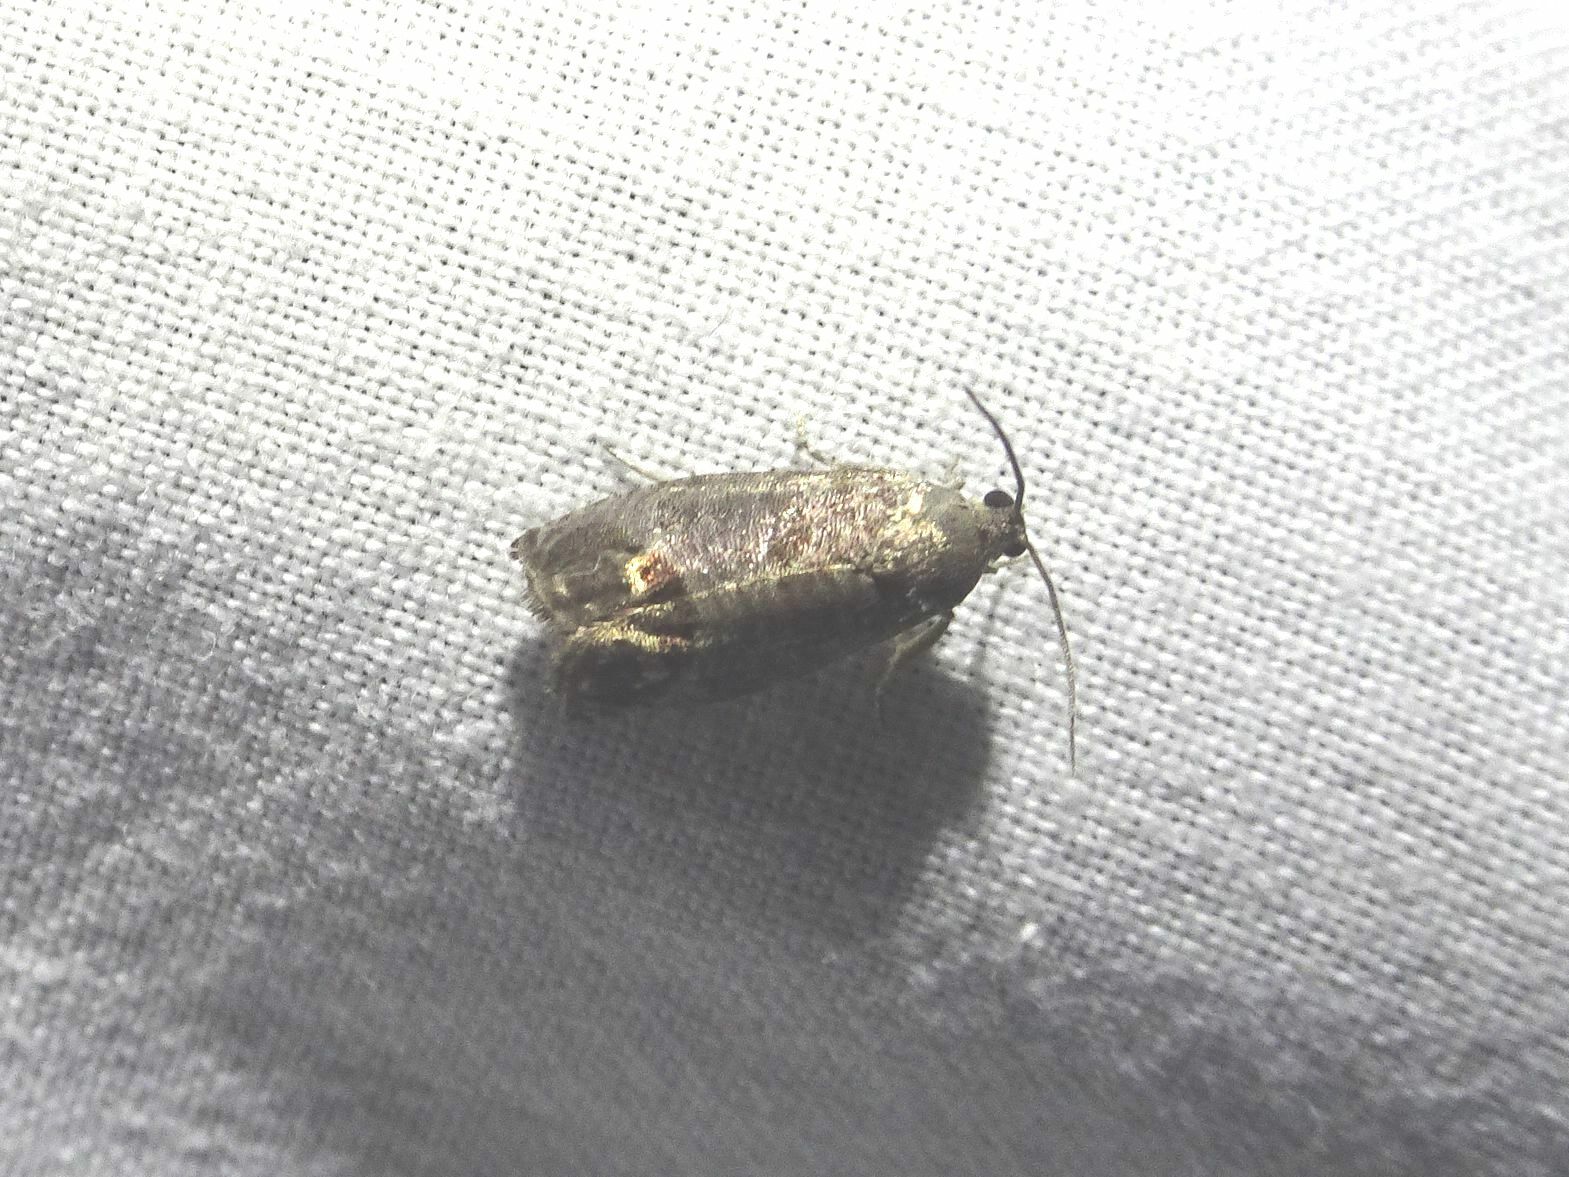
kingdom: Animalia
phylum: Arthropoda
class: Insecta
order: Lepidoptera
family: Tortricidae
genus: Cydia
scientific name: Cydia pomonella
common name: Codling moth
